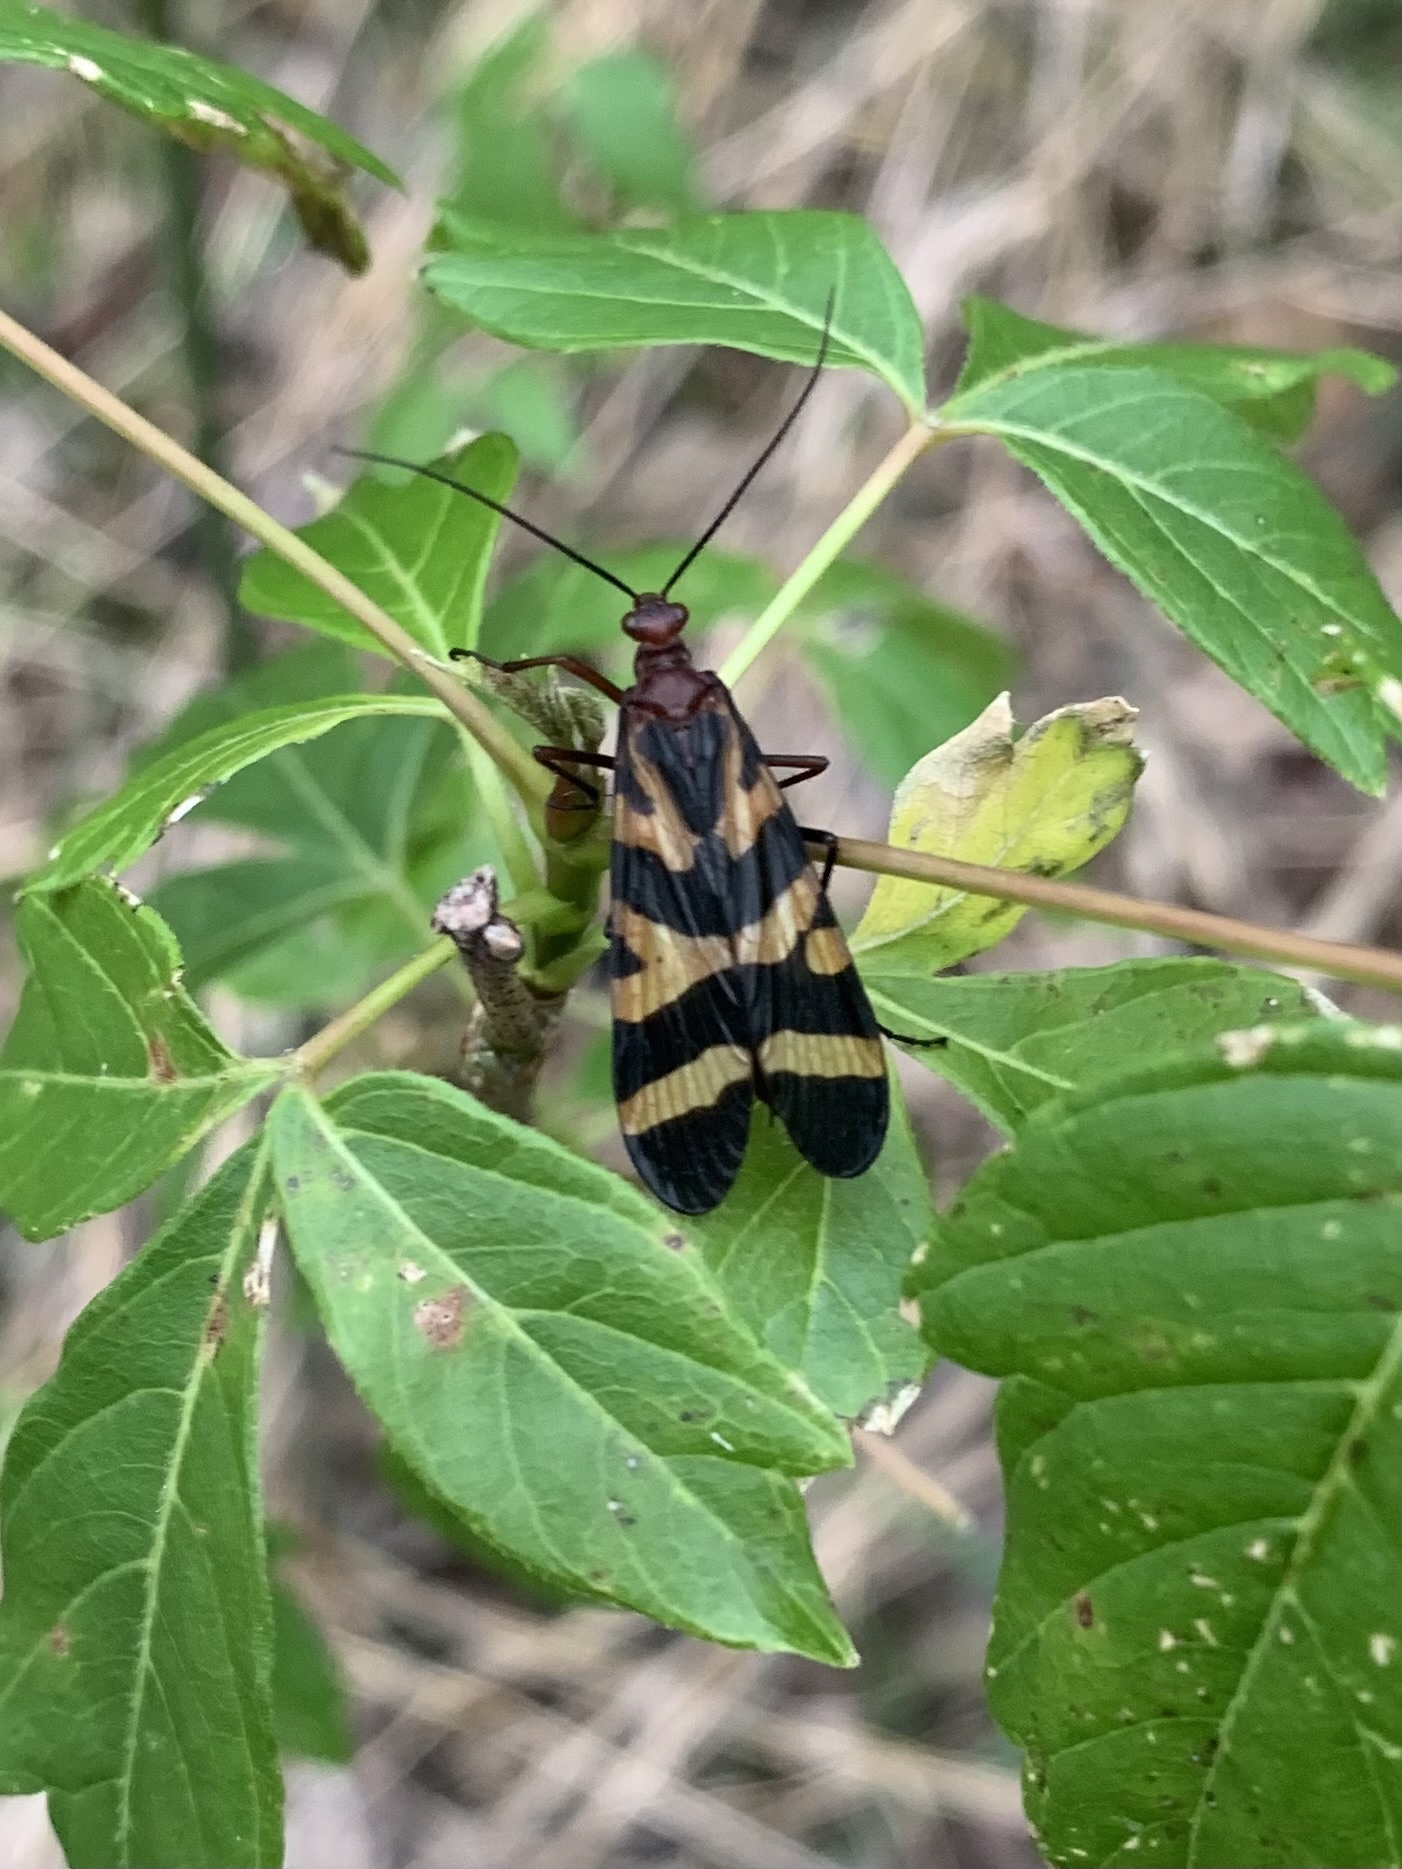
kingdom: Animalia
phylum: Arthropoda
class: Insecta
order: Mecoptera
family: Panorpidae
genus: Panorpa
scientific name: Panorpa nuptialis
